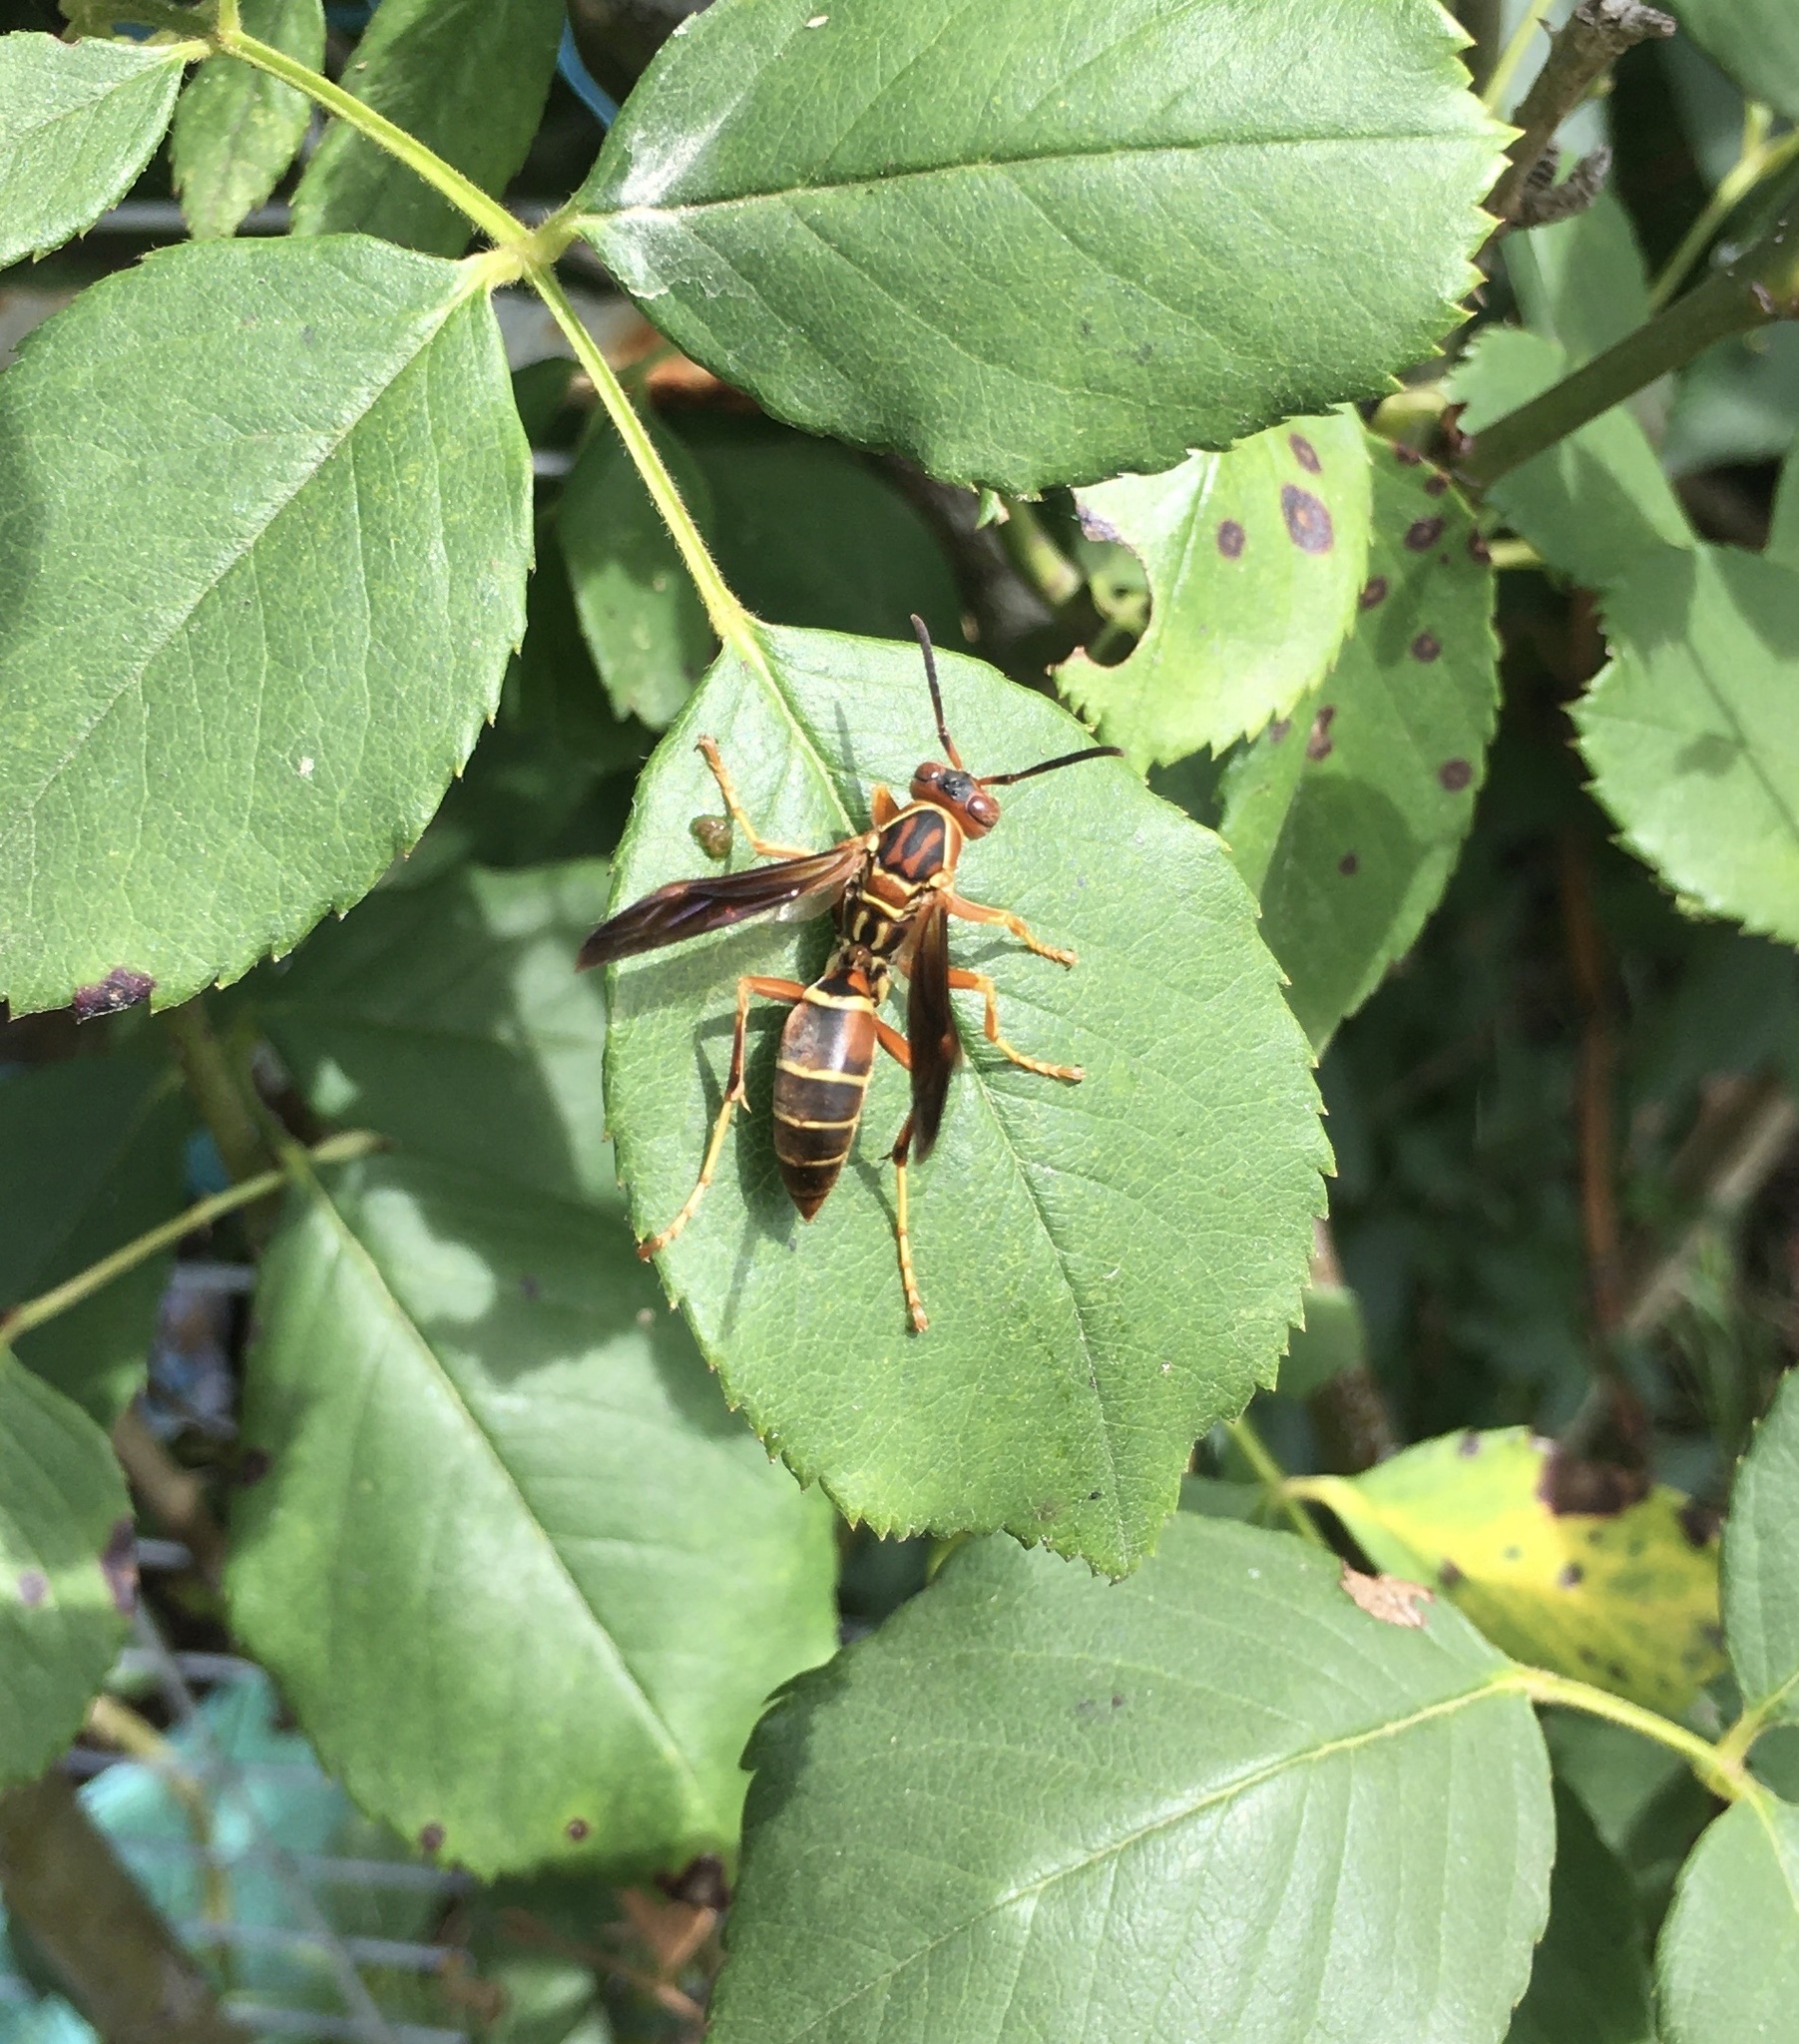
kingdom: Animalia
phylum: Arthropoda
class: Insecta
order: Hymenoptera
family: Eumenidae
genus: Polistes
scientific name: Polistes fuscatus
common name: Dark paper wasp
